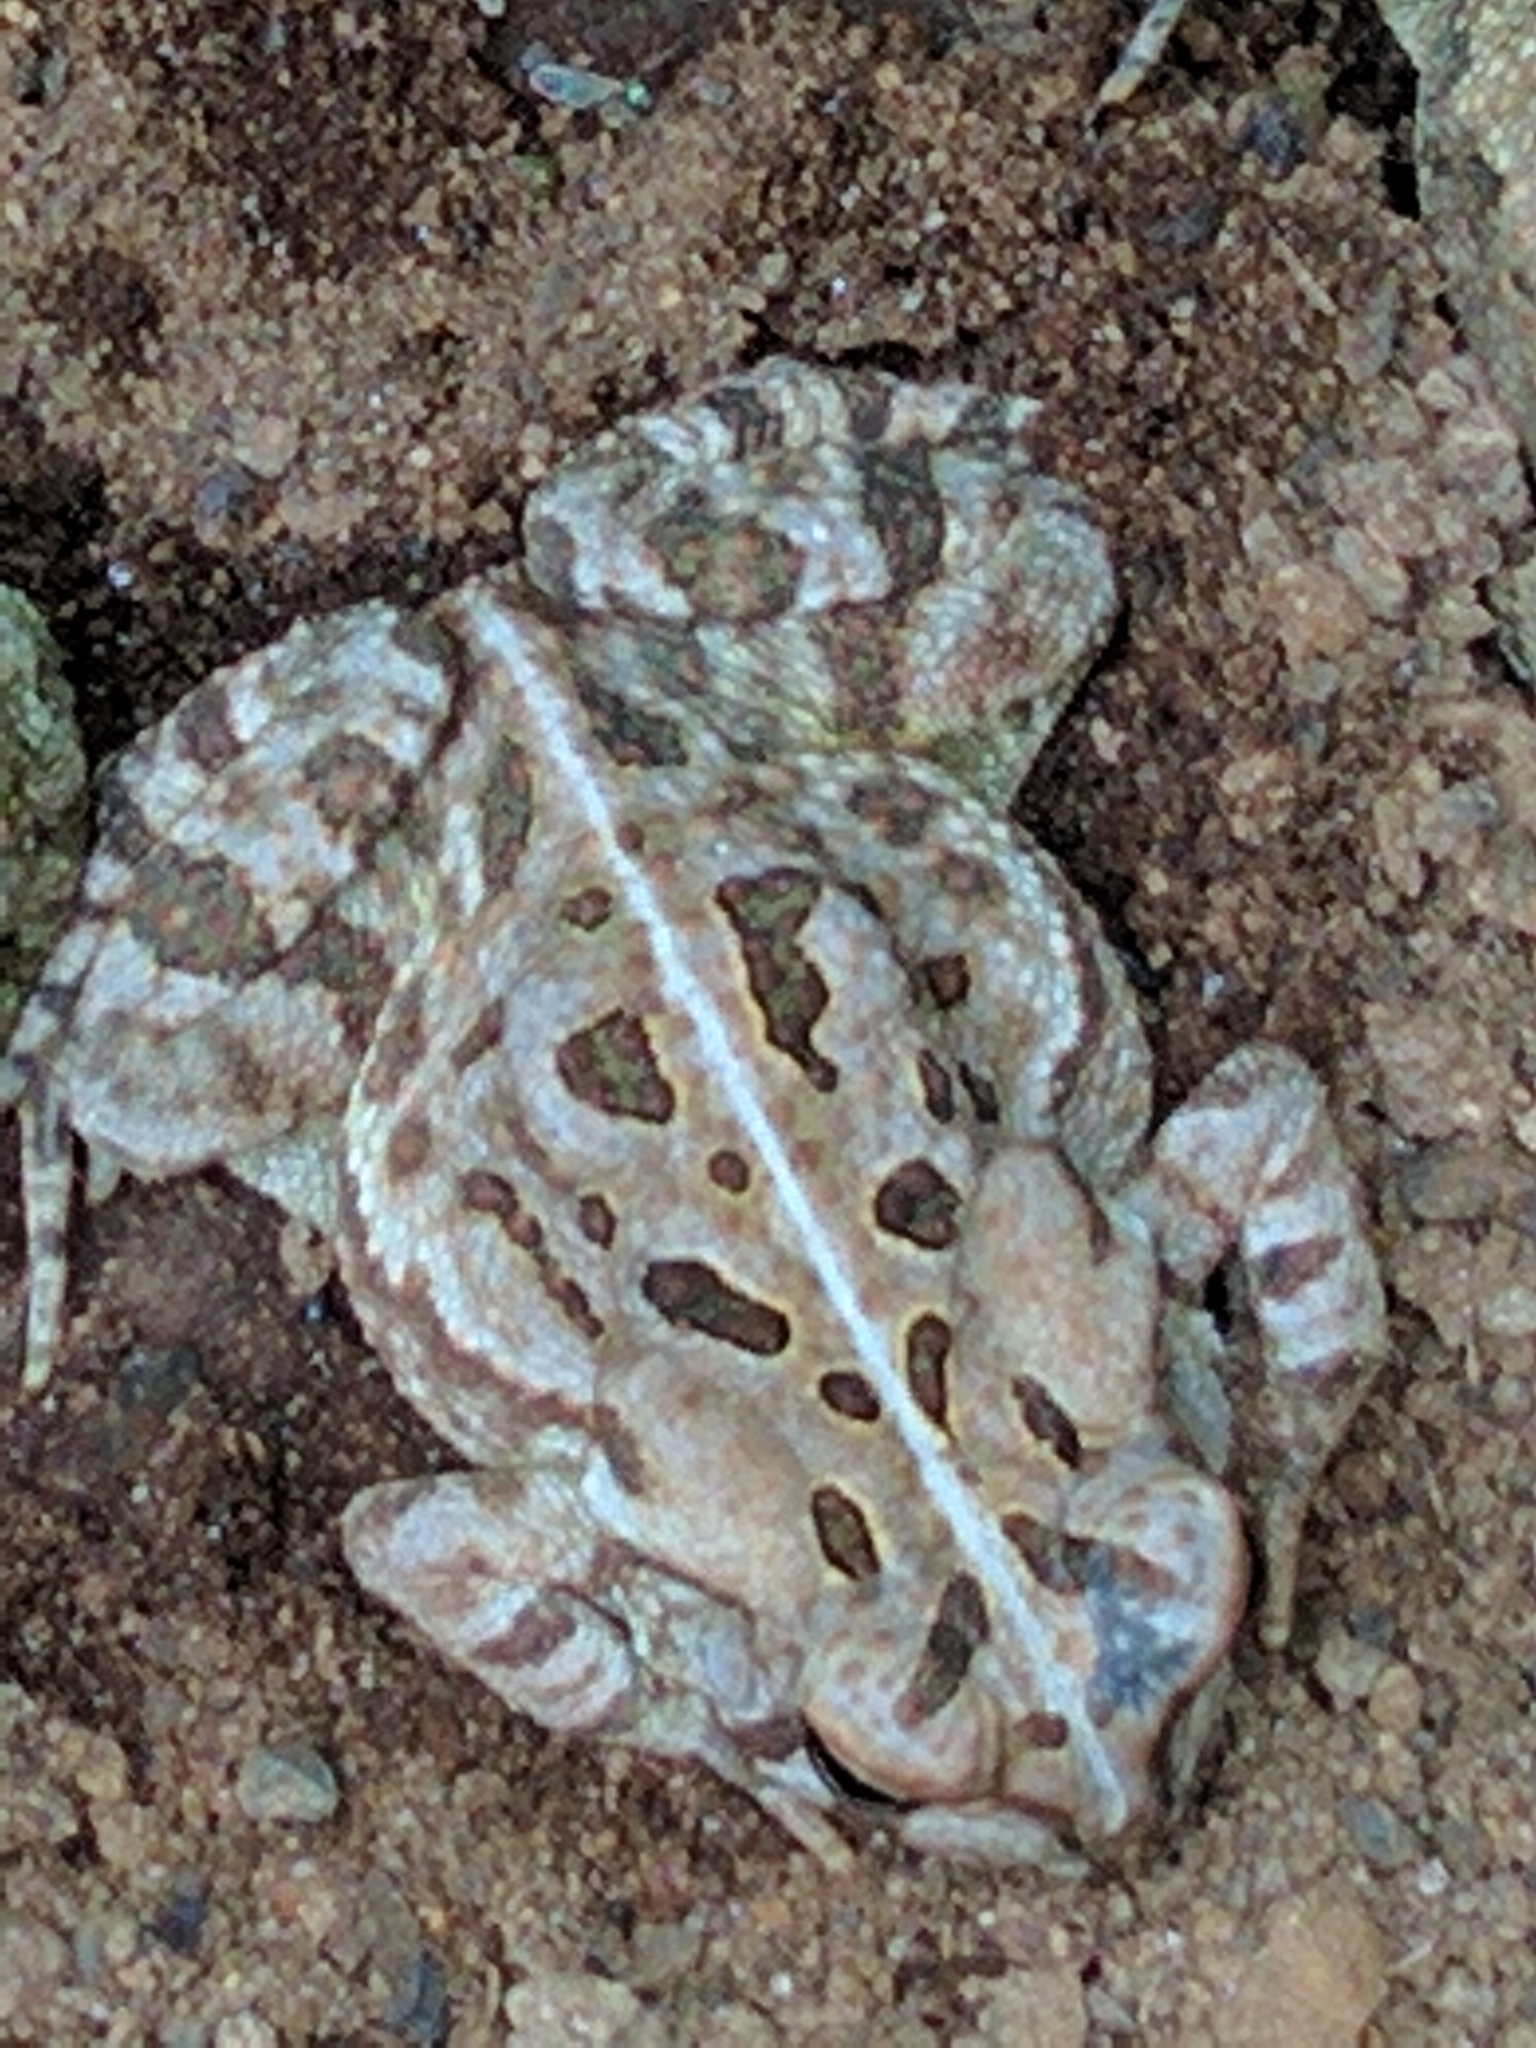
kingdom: Animalia
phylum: Chordata
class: Amphibia
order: Anura
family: Bufonidae
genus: Anaxyrus
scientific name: Anaxyrus fowleri
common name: Fowler's toad
